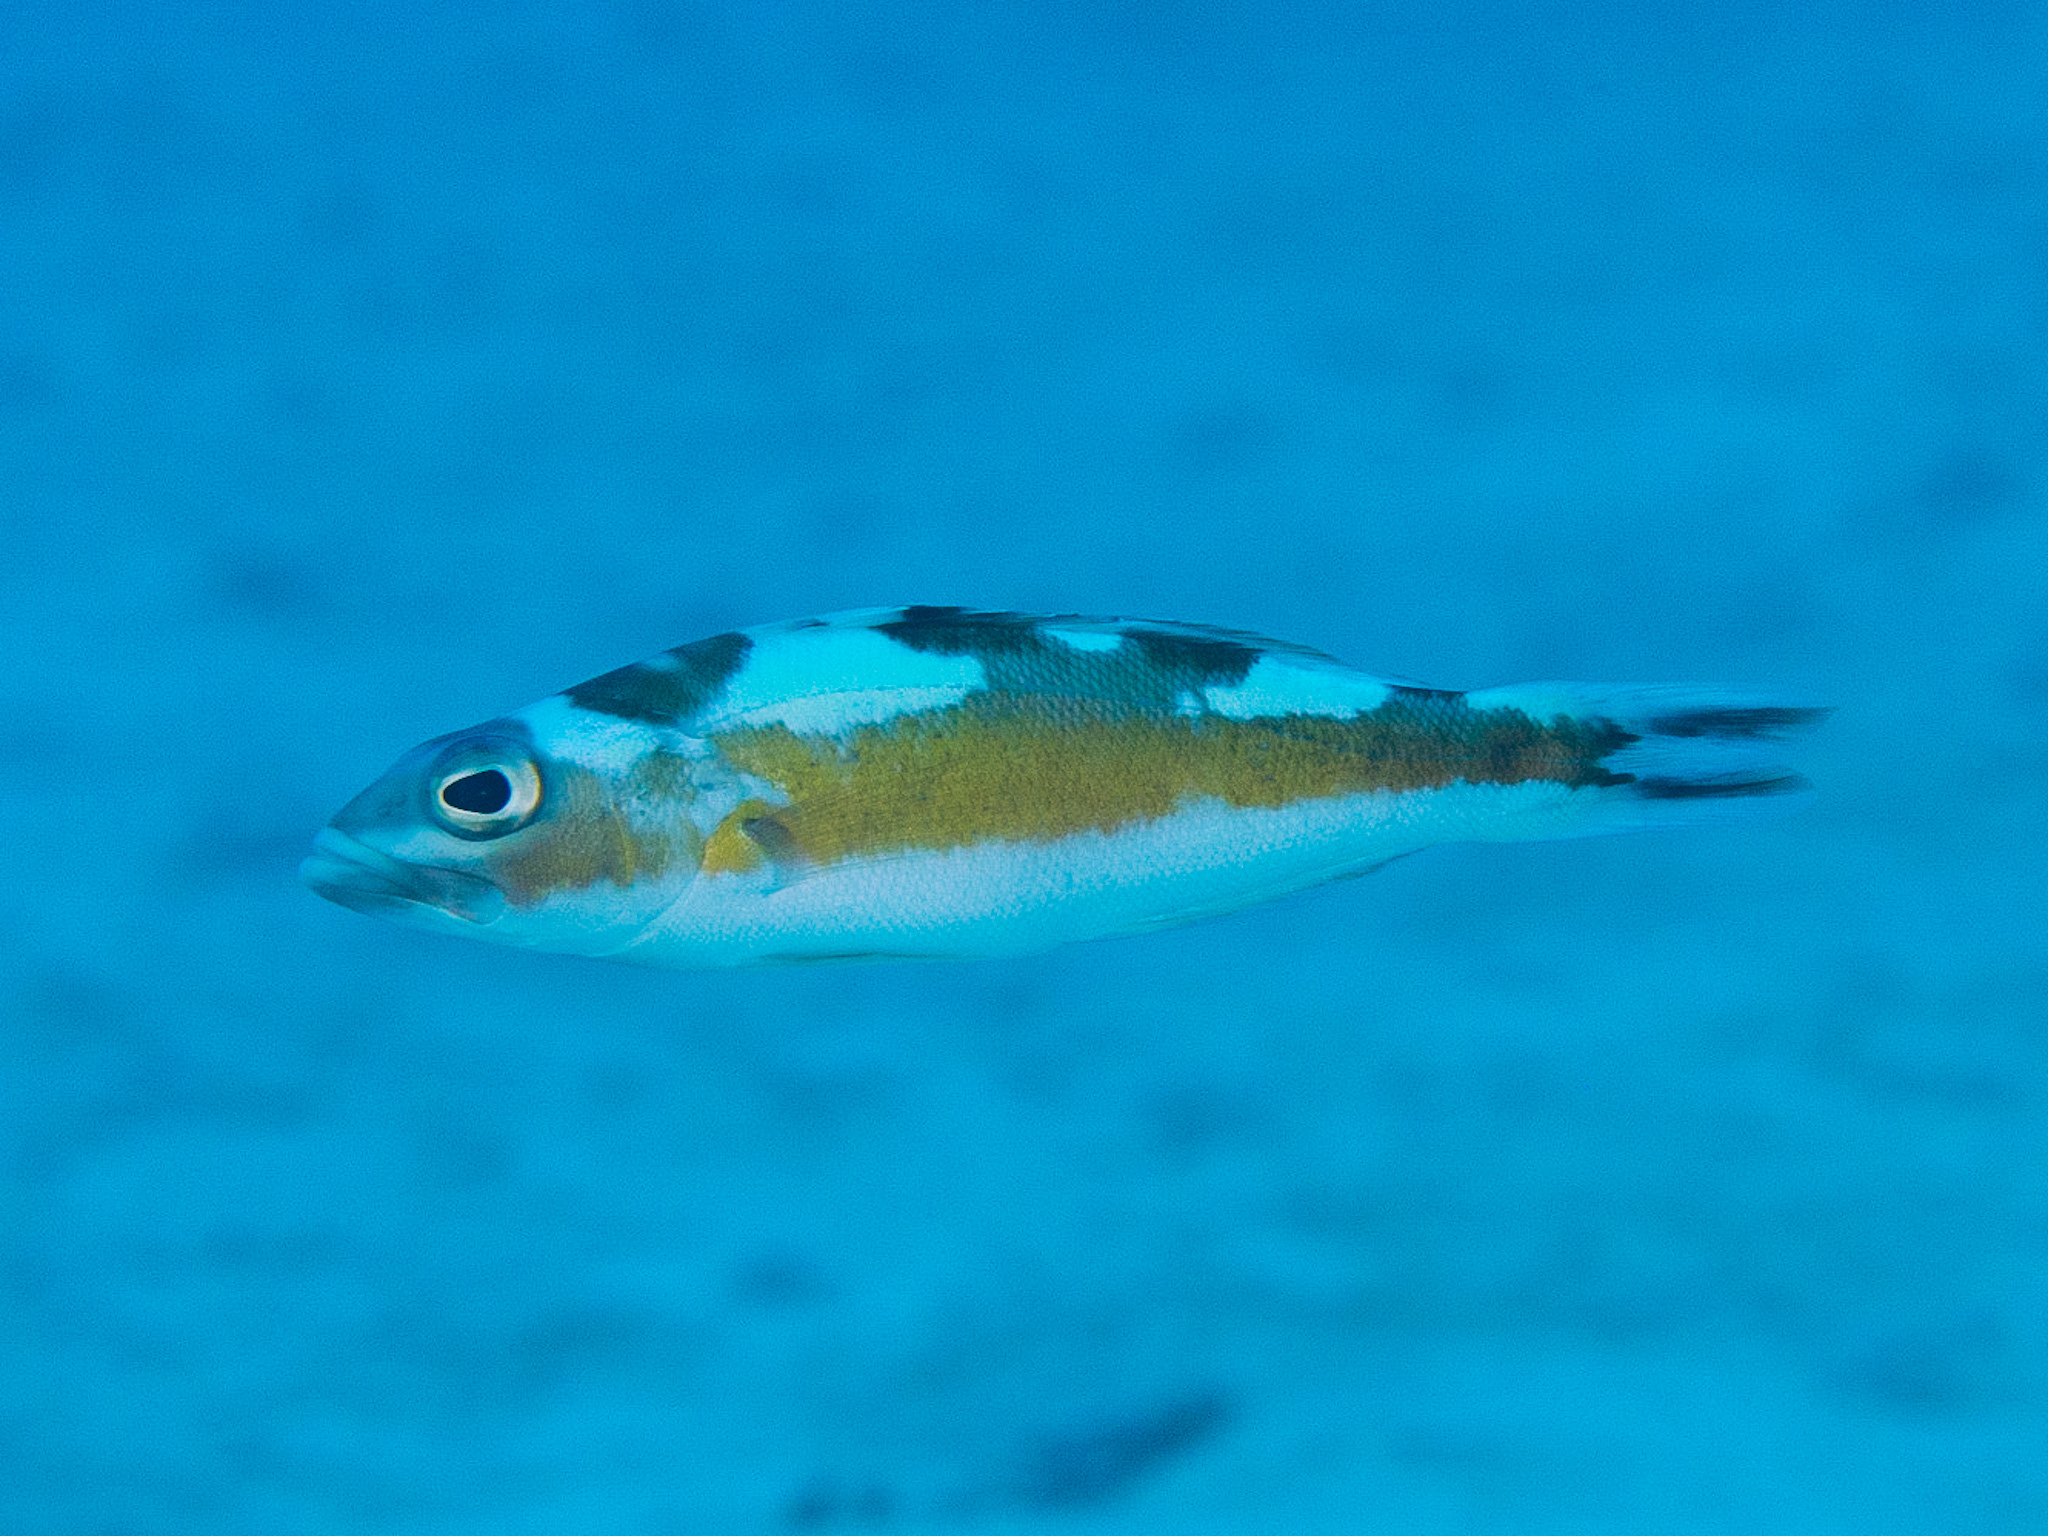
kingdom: Animalia
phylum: Chordata
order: Perciformes
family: Serranidae
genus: Serranus
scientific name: Serranus tabacarius
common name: Tobaccofish
